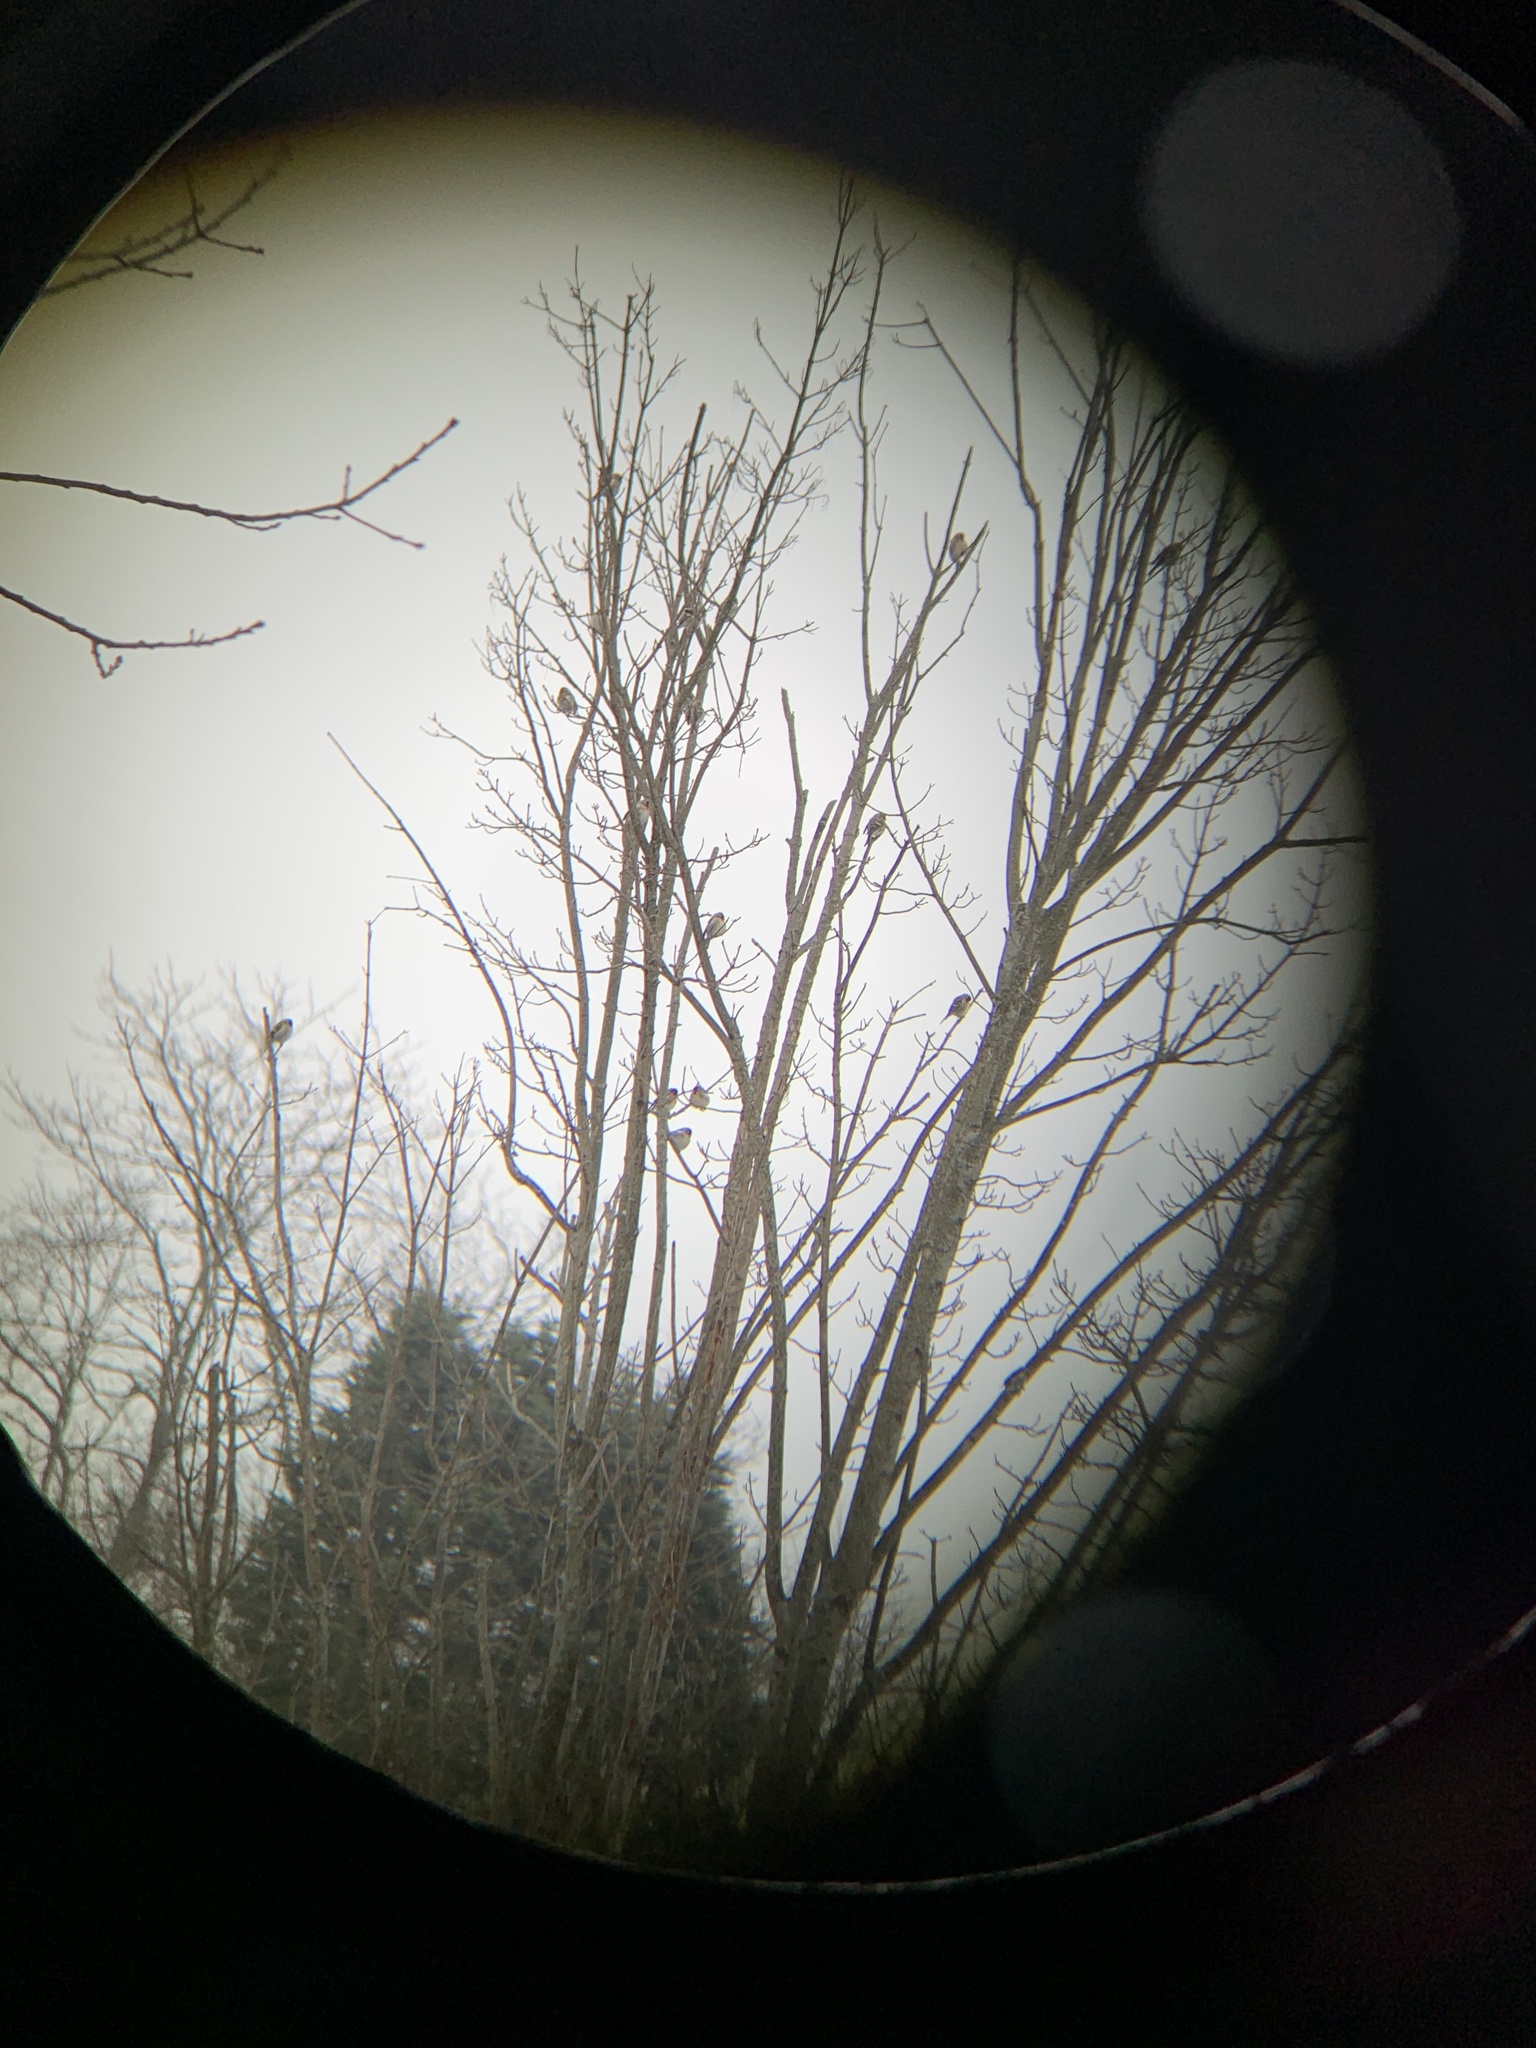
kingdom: Animalia
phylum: Chordata
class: Aves
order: Passeriformes
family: Fringillidae
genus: Acanthis
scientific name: Acanthis flammea
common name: Common redpoll
